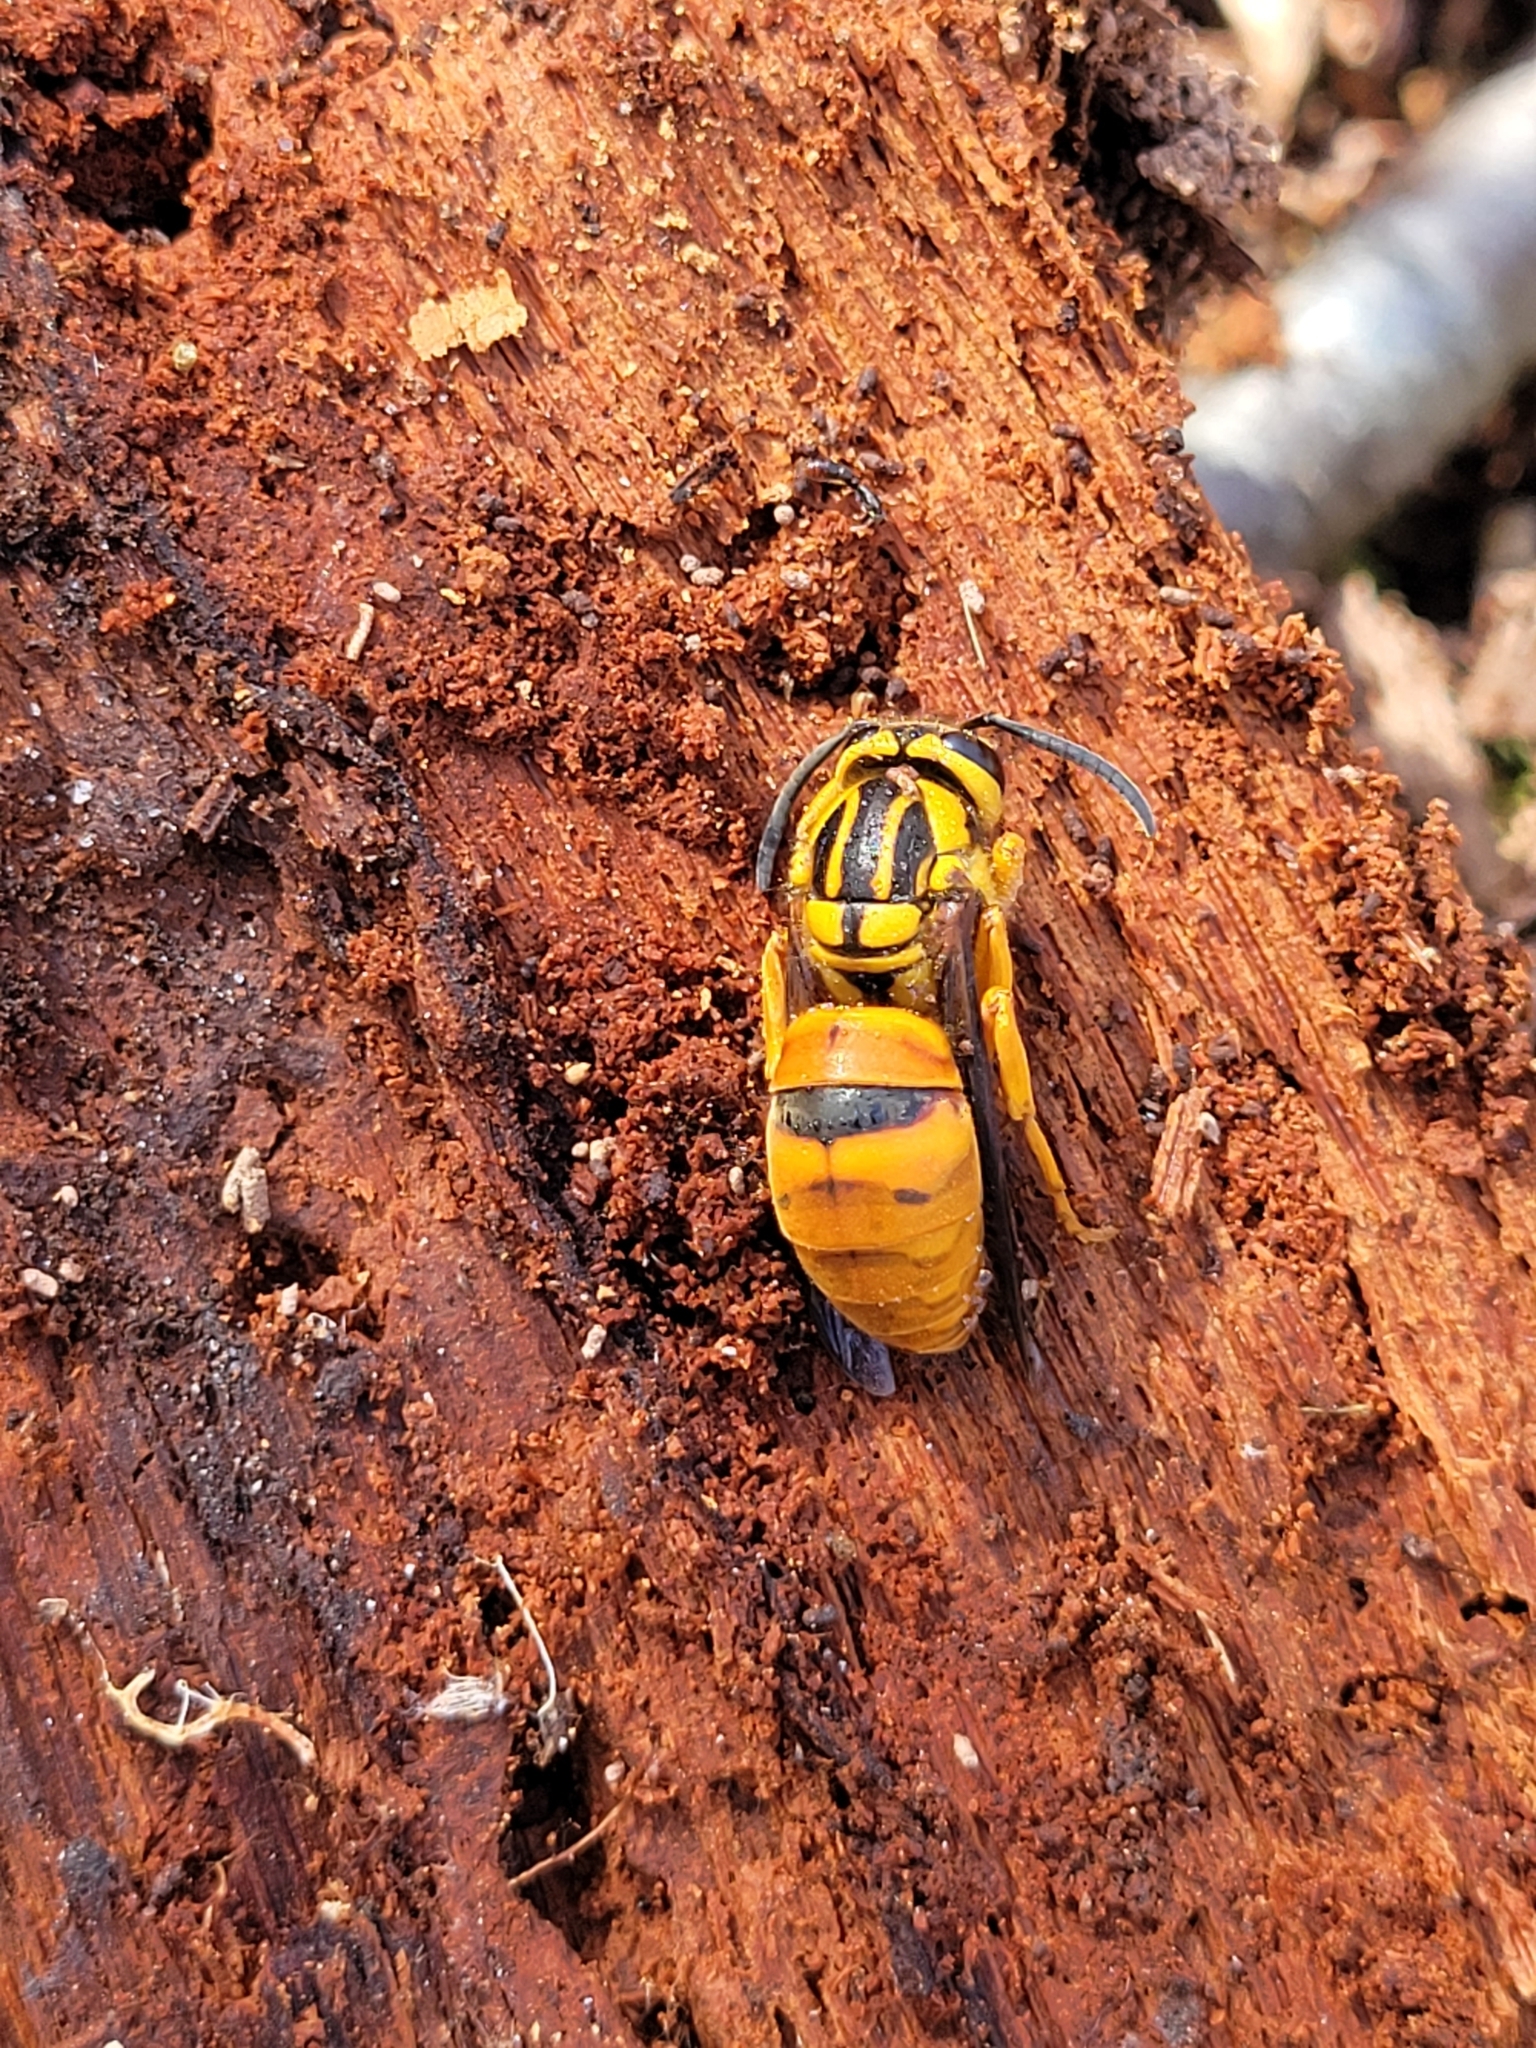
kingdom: Animalia
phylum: Arthropoda
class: Insecta
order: Hymenoptera
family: Vespidae
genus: Vespula
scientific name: Vespula squamosa
